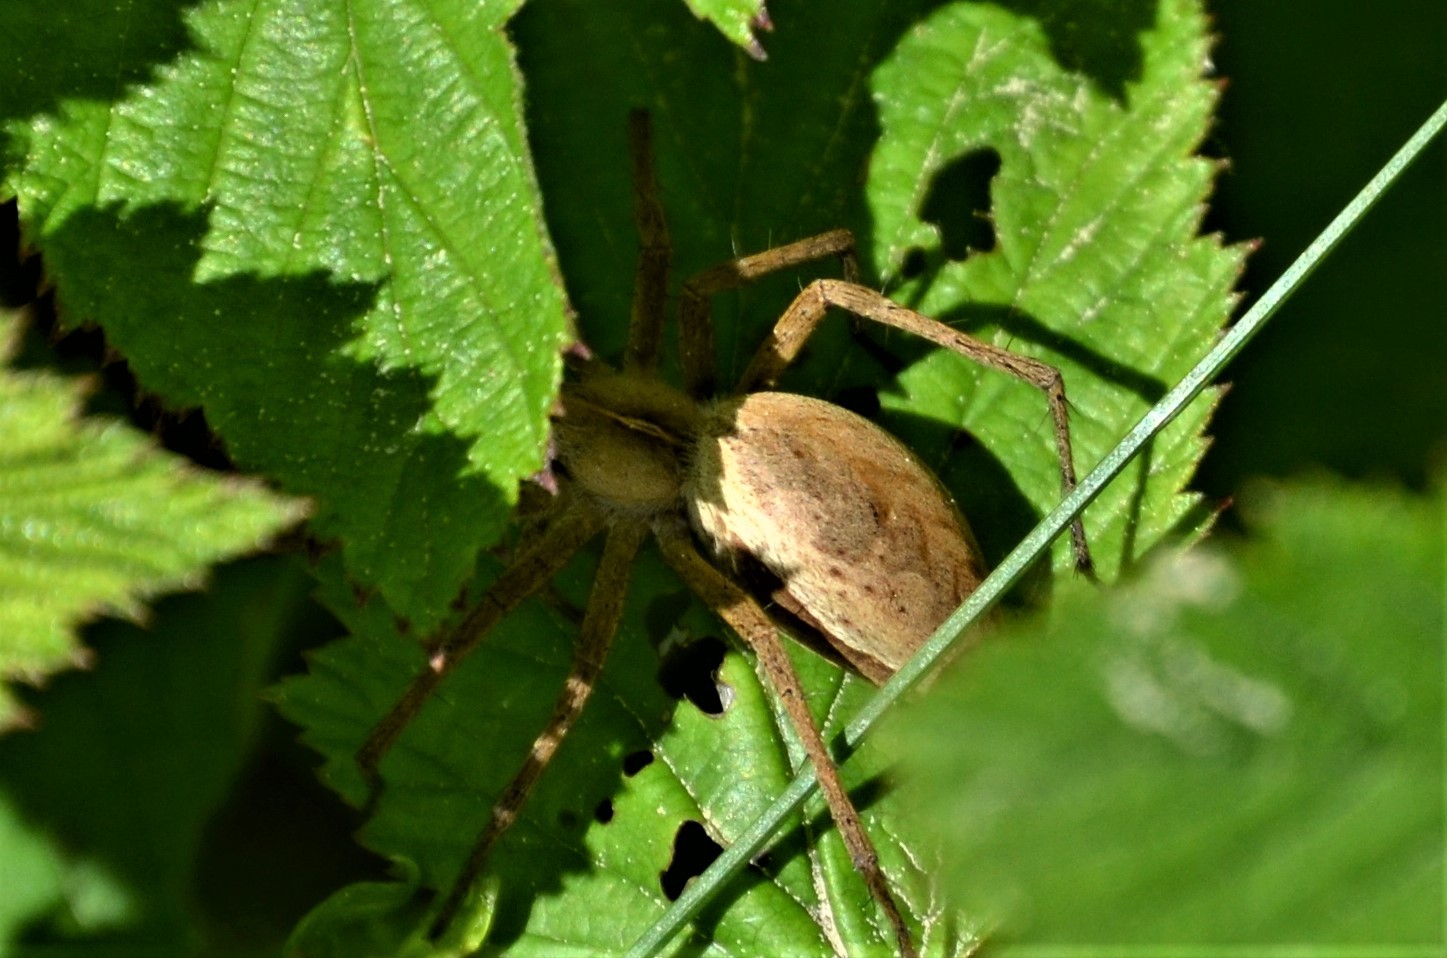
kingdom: Animalia
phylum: Arthropoda
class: Arachnida
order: Araneae
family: Pisauridae
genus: Pisaura
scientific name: Pisaura mirabilis
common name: Tent spider
